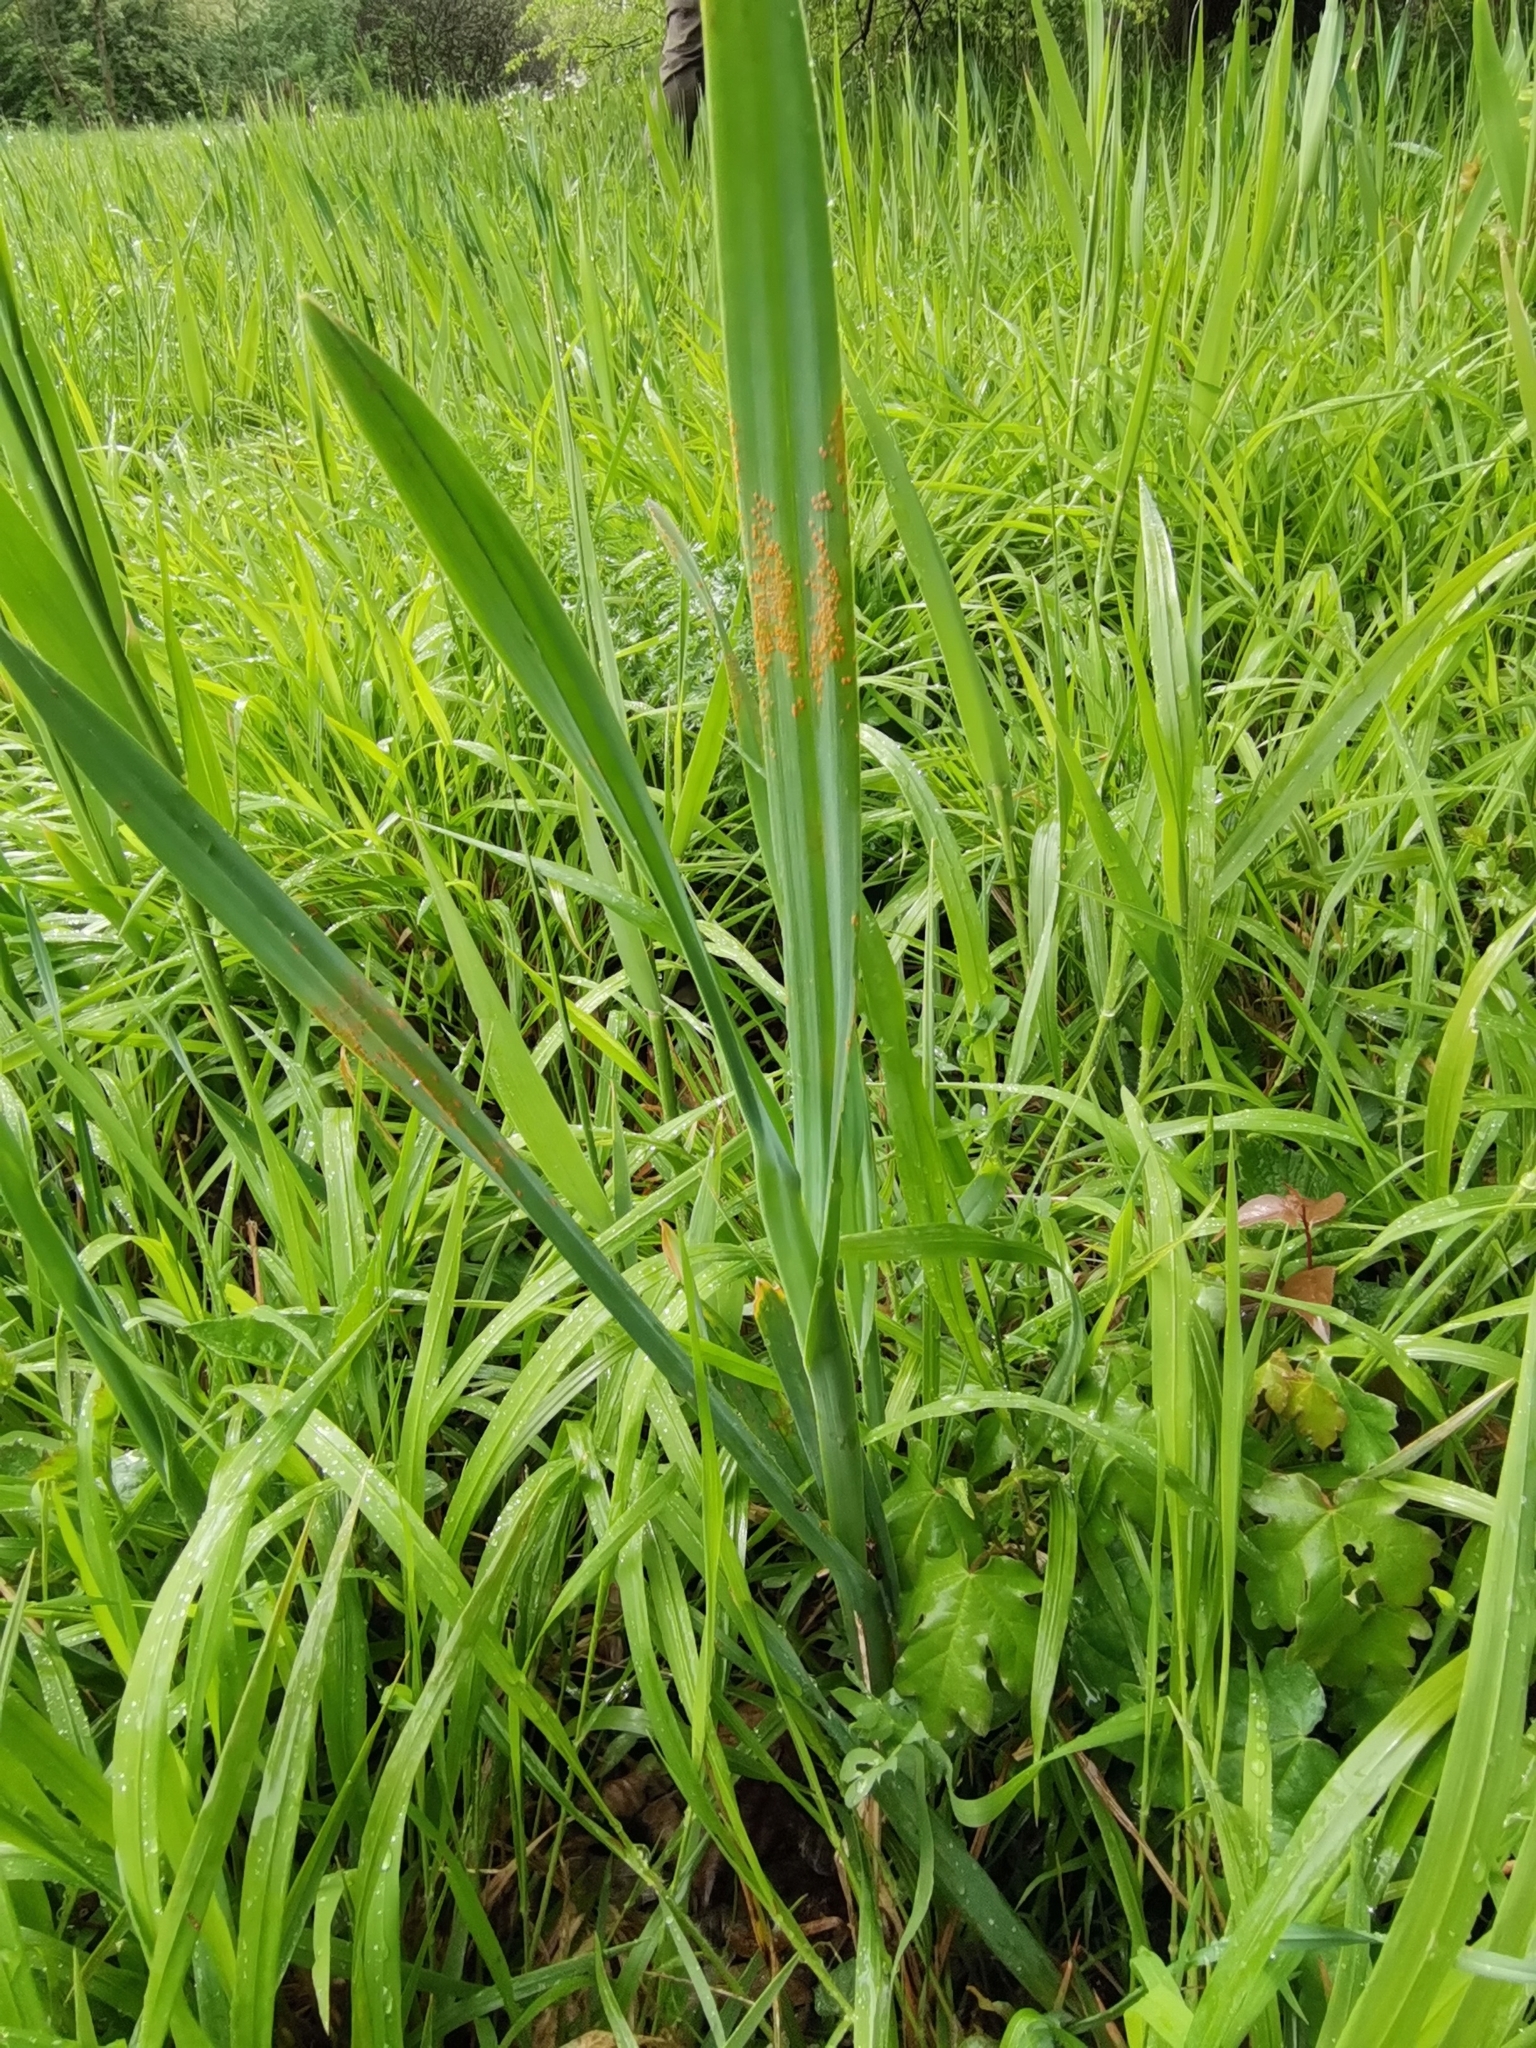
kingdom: Fungi
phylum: Basidiomycota
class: Pucciniomycetes
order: Pucciniales
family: Pucciniaceae
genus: Puccinia
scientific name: Puccinia allii
